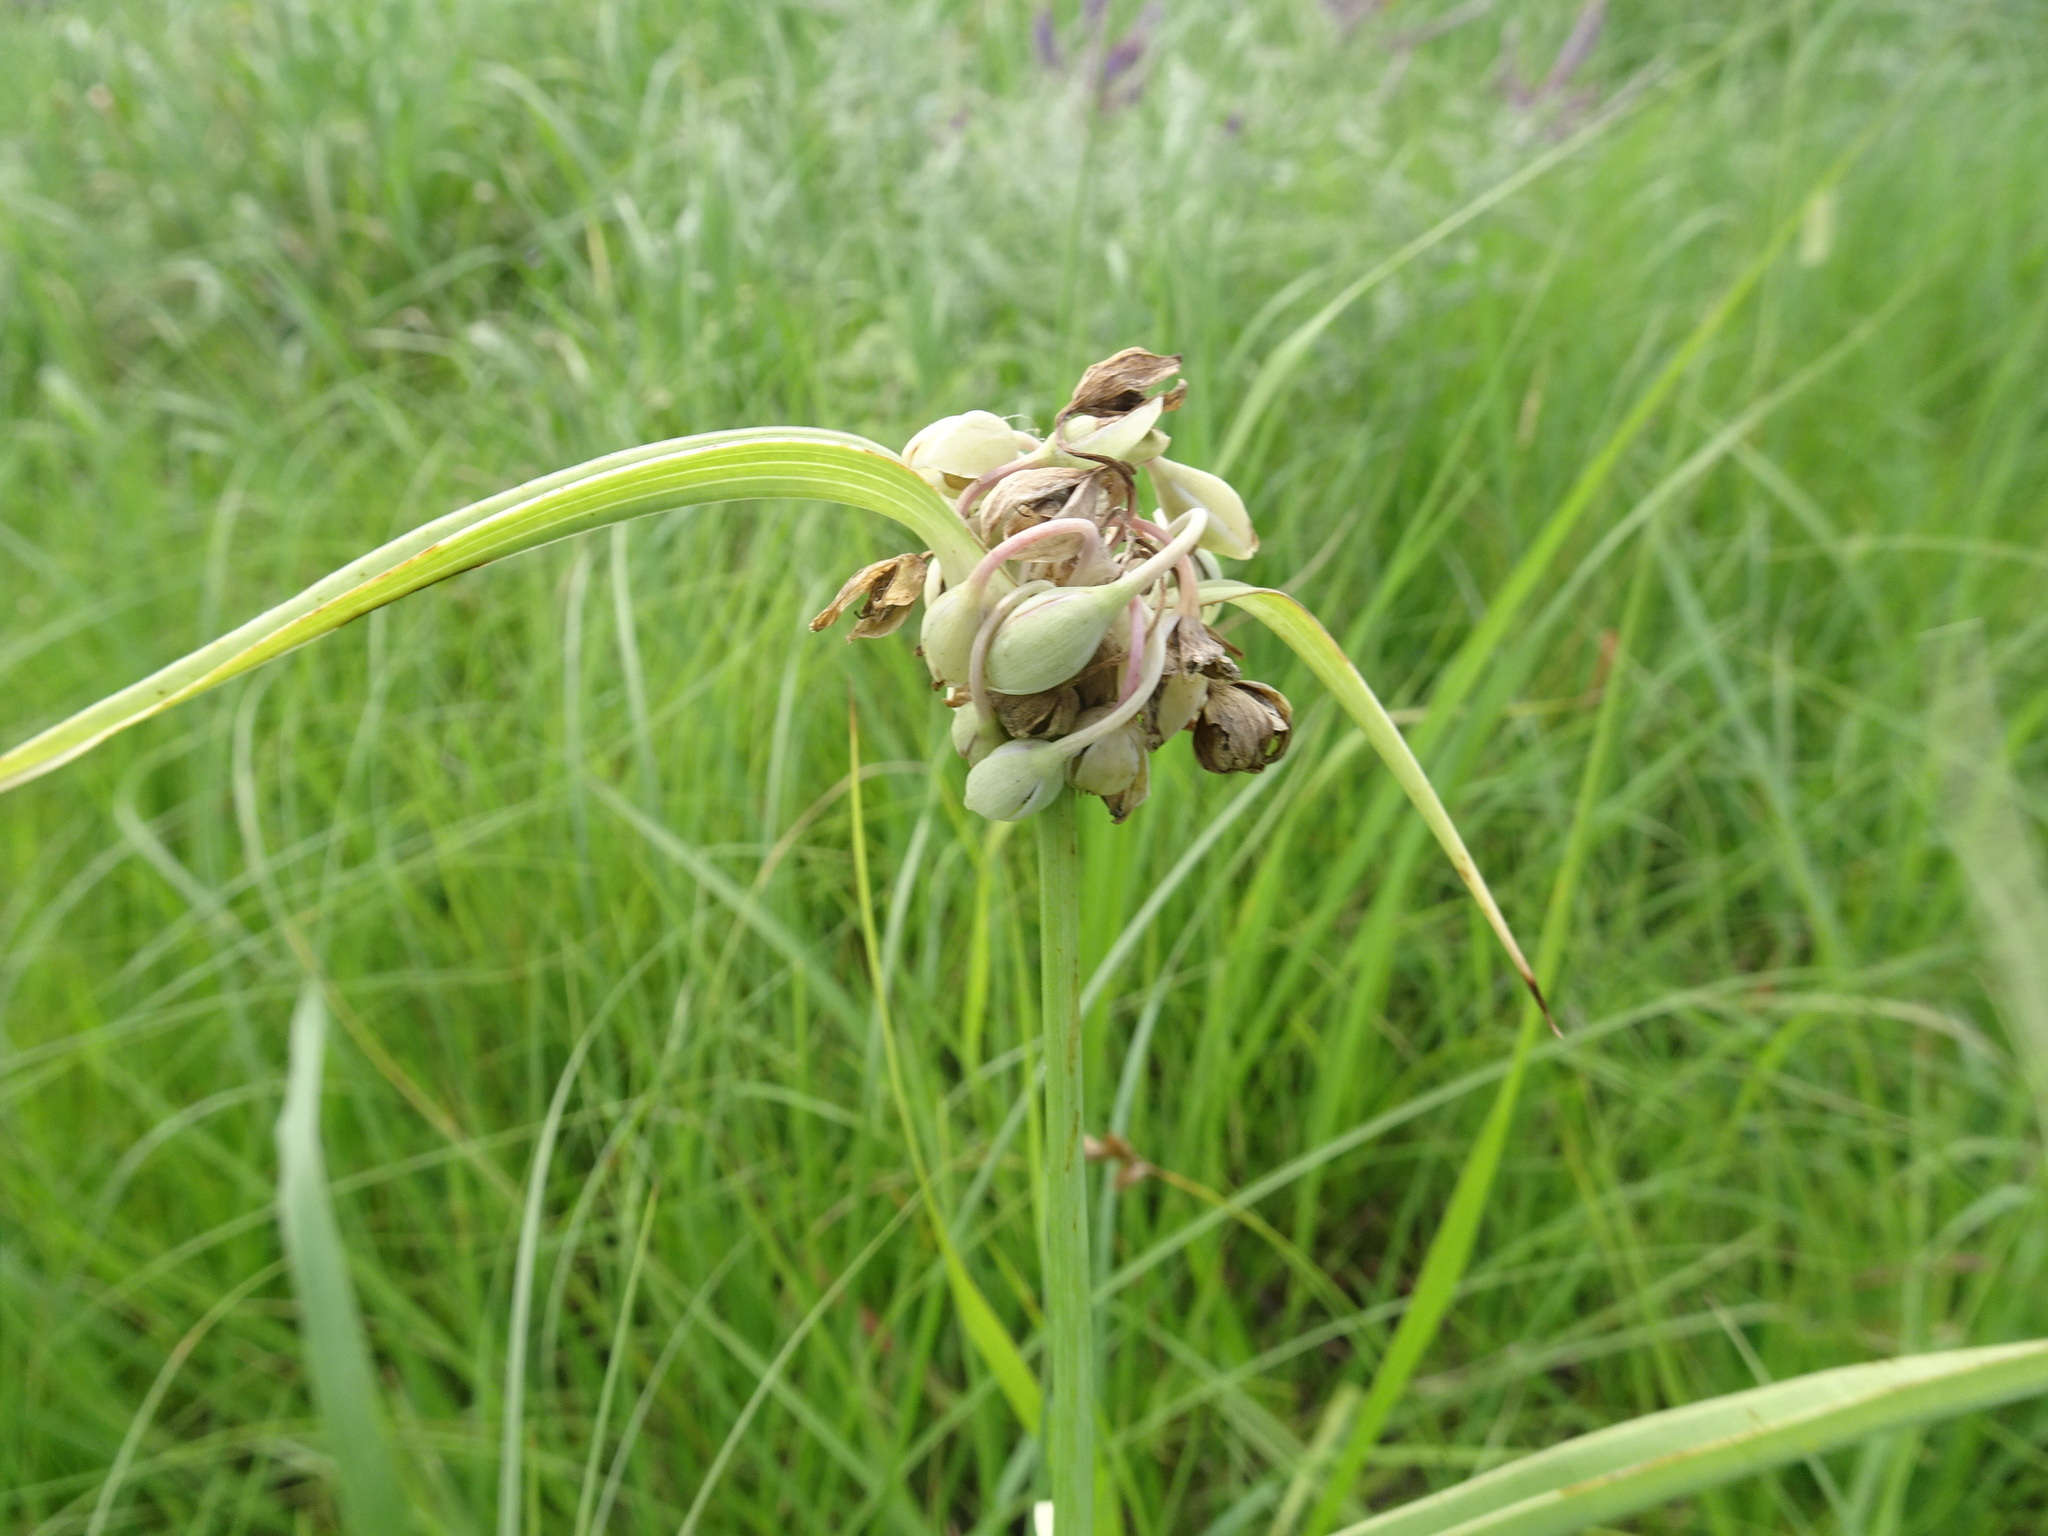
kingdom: Plantae
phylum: Tracheophyta
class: Liliopsida
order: Commelinales
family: Commelinaceae
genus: Tradescantia
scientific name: Tradescantia ohiensis
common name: Ohio spiderwort
